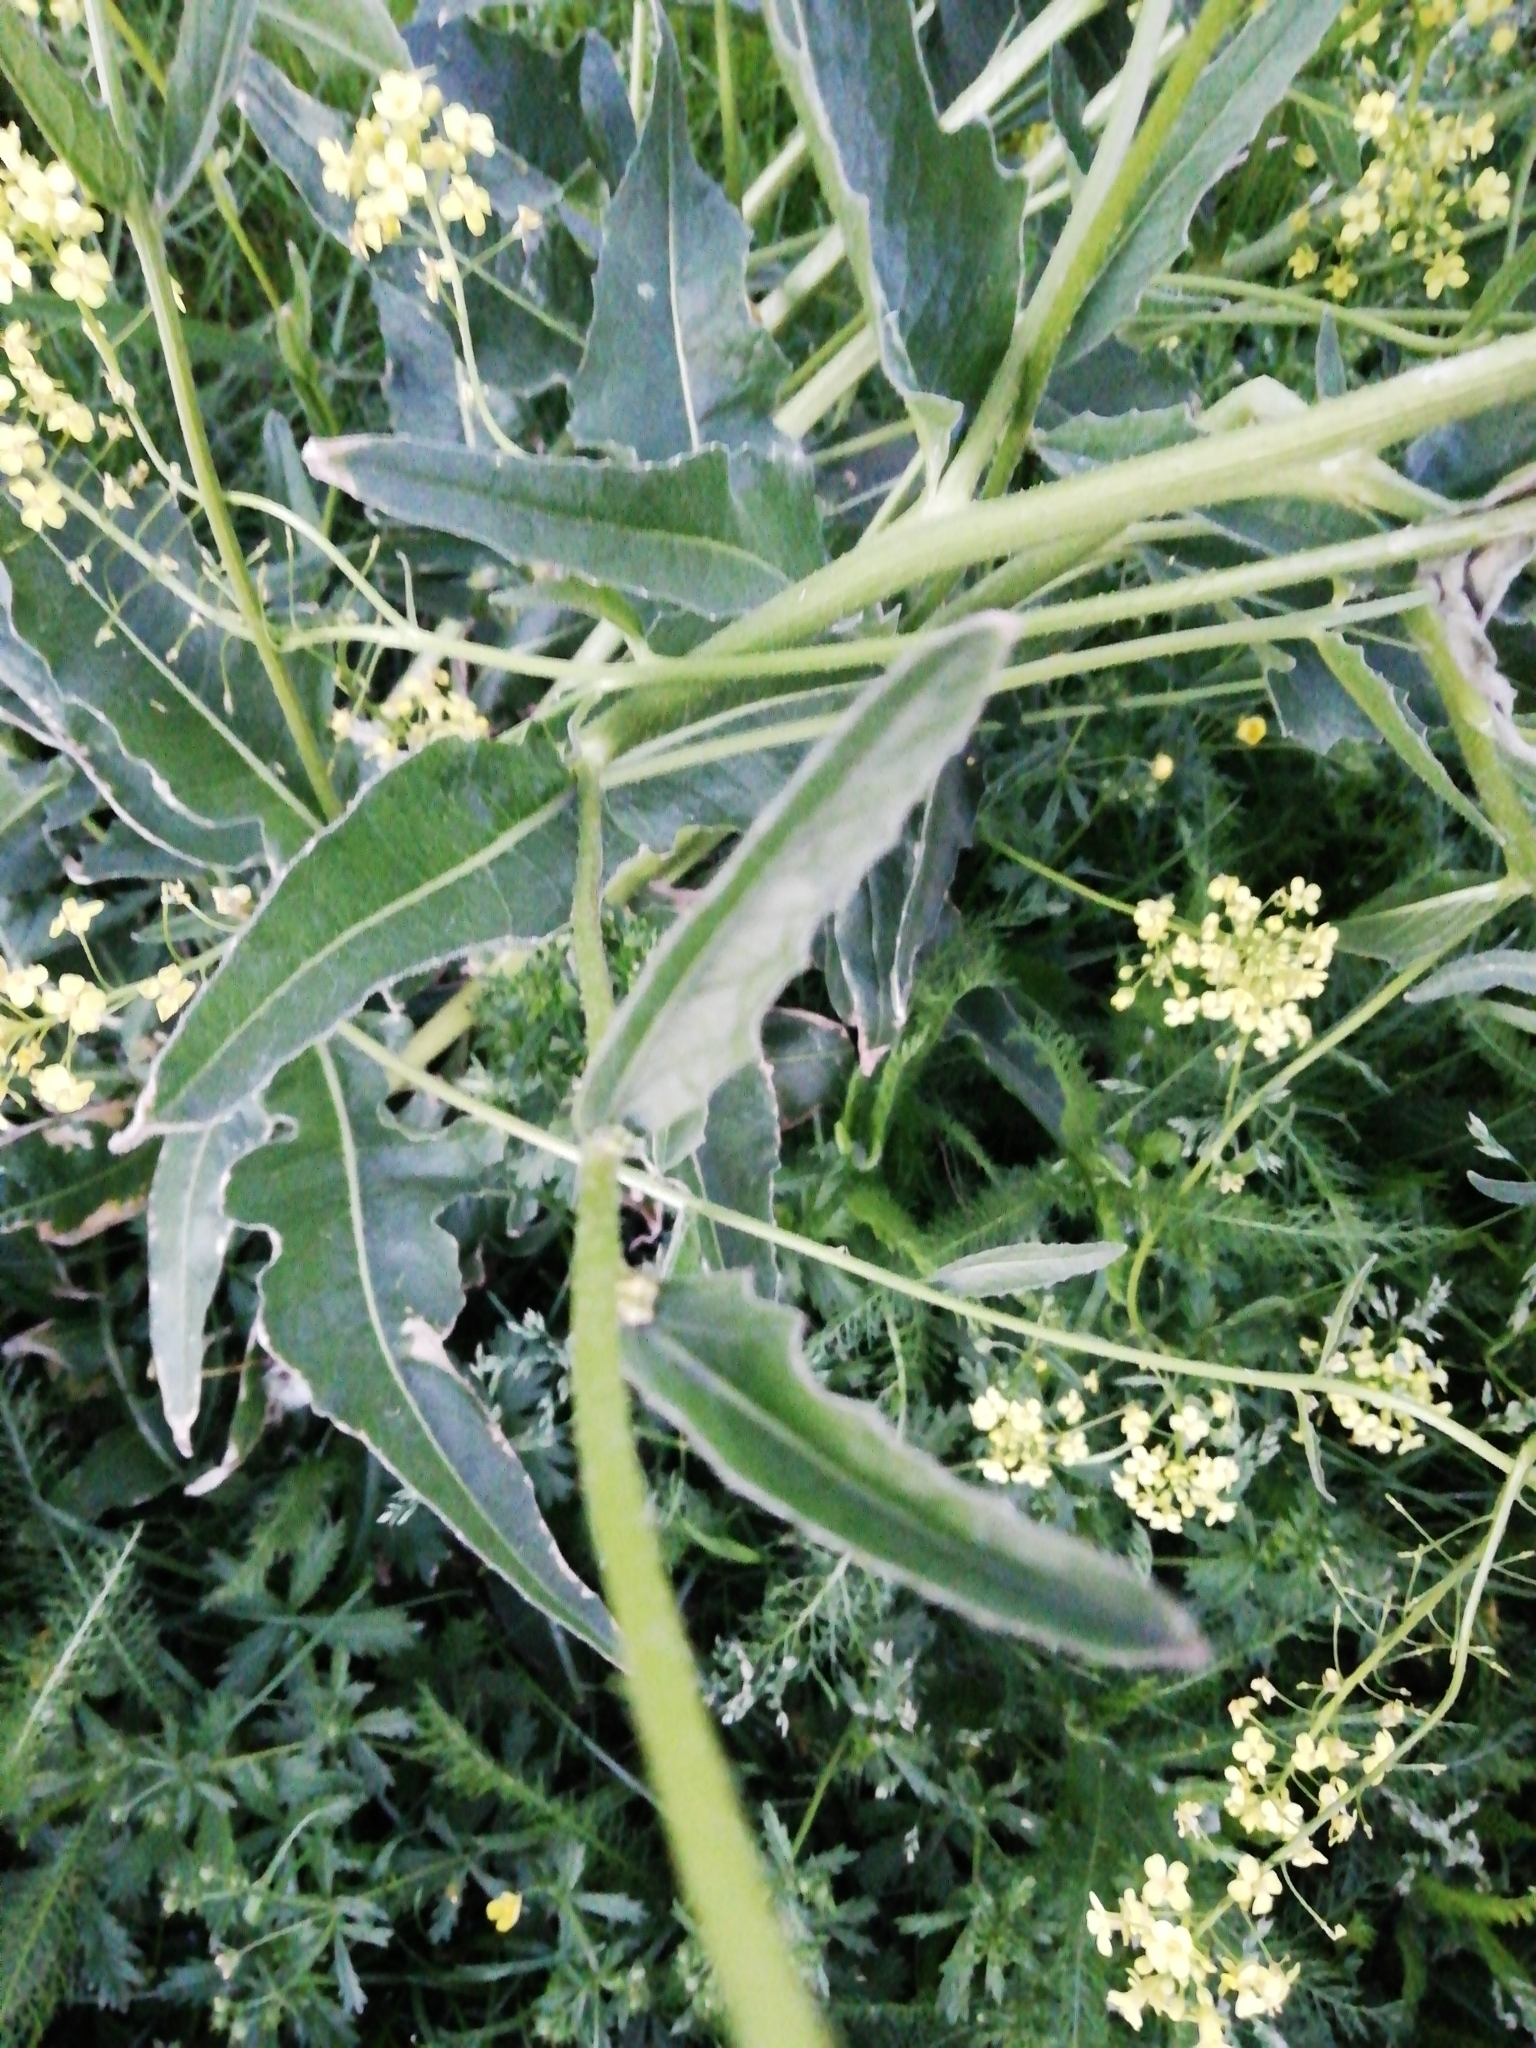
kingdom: Plantae
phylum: Tracheophyta
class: Magnoliopsida
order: Brassicales
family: Brassicaceae
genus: Bunias
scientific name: Bunias orientalis
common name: Warty-cabbage
